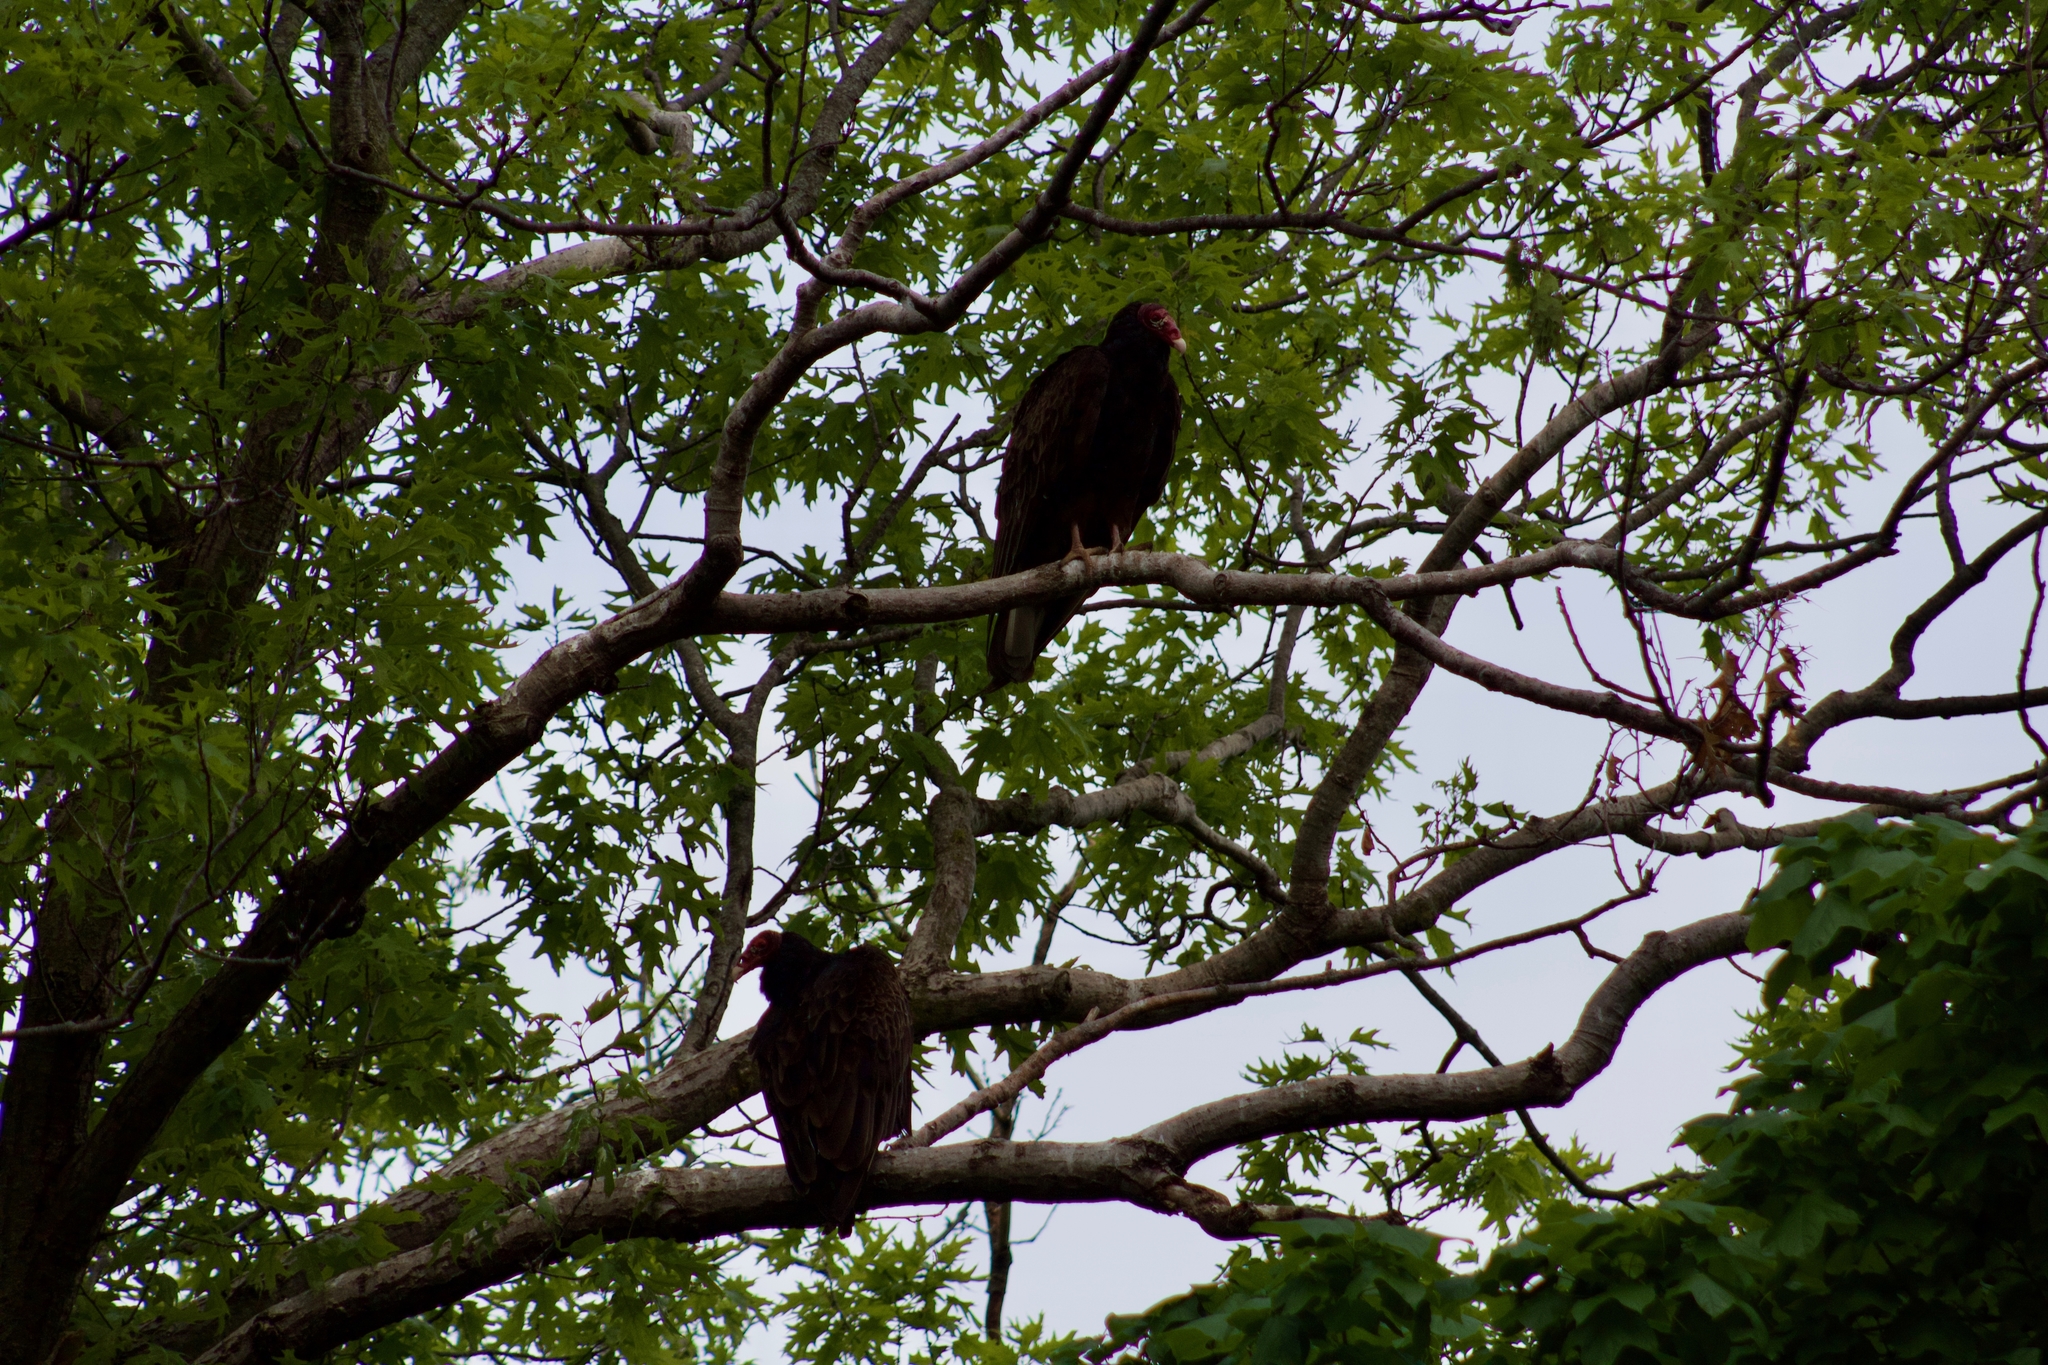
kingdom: Animalia
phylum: Chordata
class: Aves
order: Accipitriformes
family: Cathartidae
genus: Cathartes
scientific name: Cathartes aura
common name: Turkey vulture
